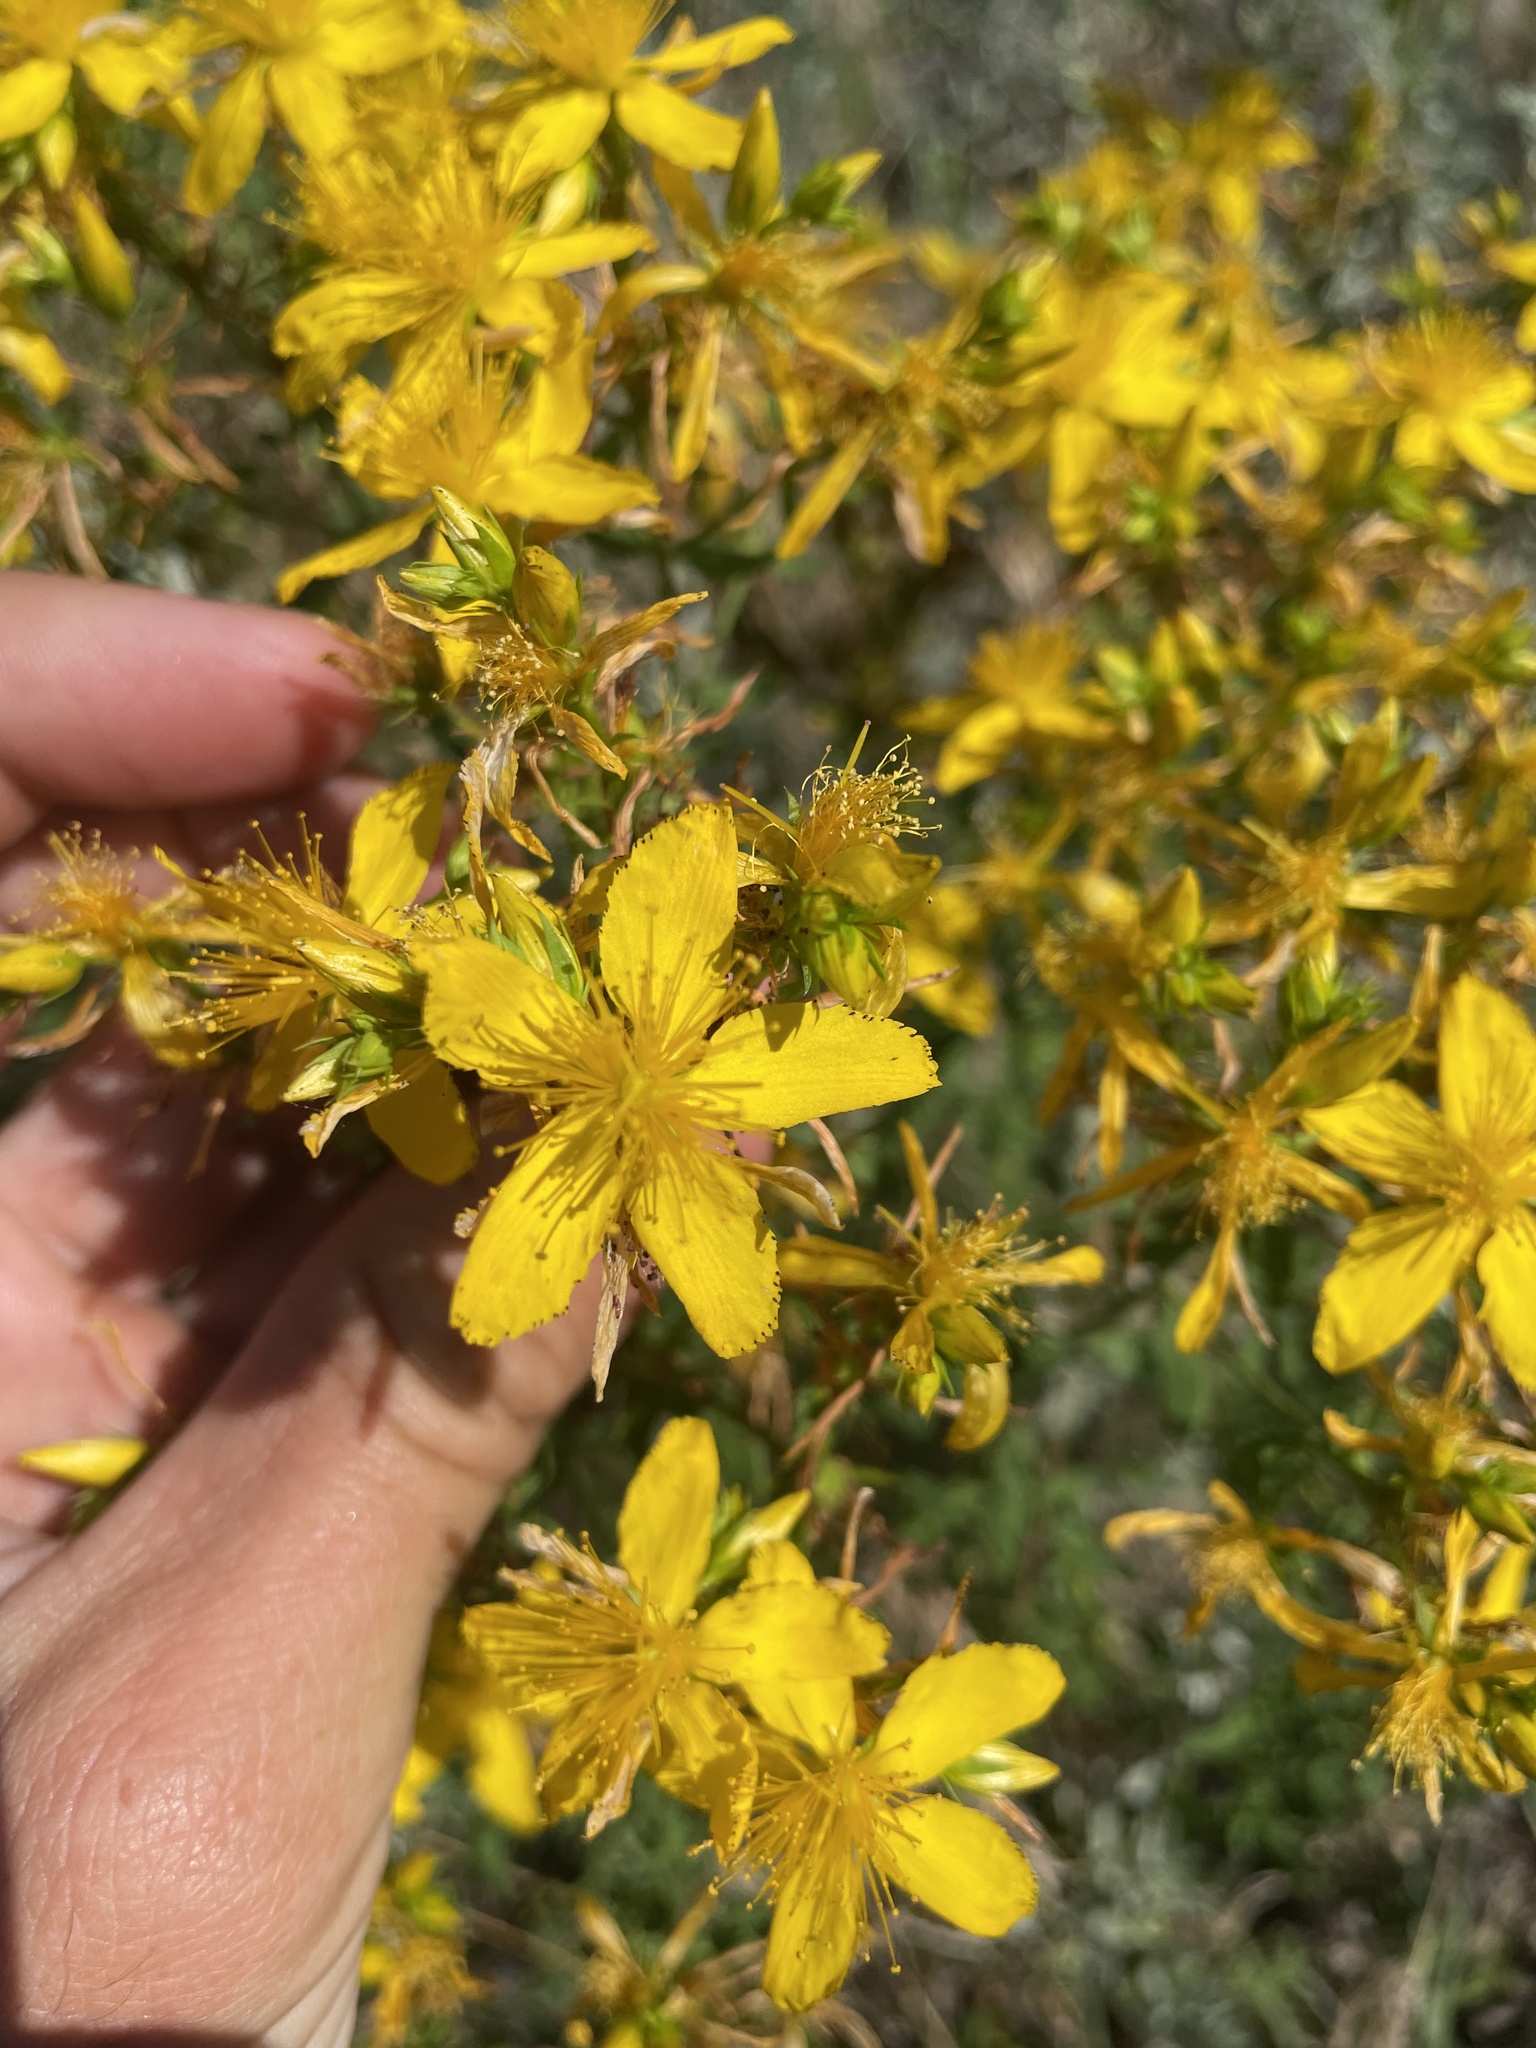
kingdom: Plantae
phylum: Tracheophyta
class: Magnoliopsida
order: Malpighiales
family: Hypericaceae
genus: Hypericum
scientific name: Hypericum perforatum
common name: Common st. johnswort
